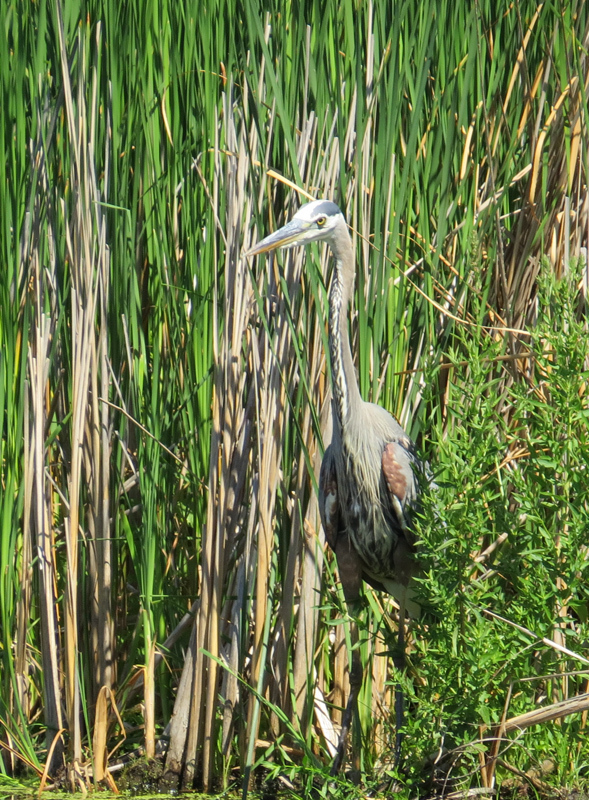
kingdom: Animalia
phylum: Chordata
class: Aves
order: Pelecaniformes
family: Ardeidae
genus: Ardea
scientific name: Ardea herodias
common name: Great blue heron
